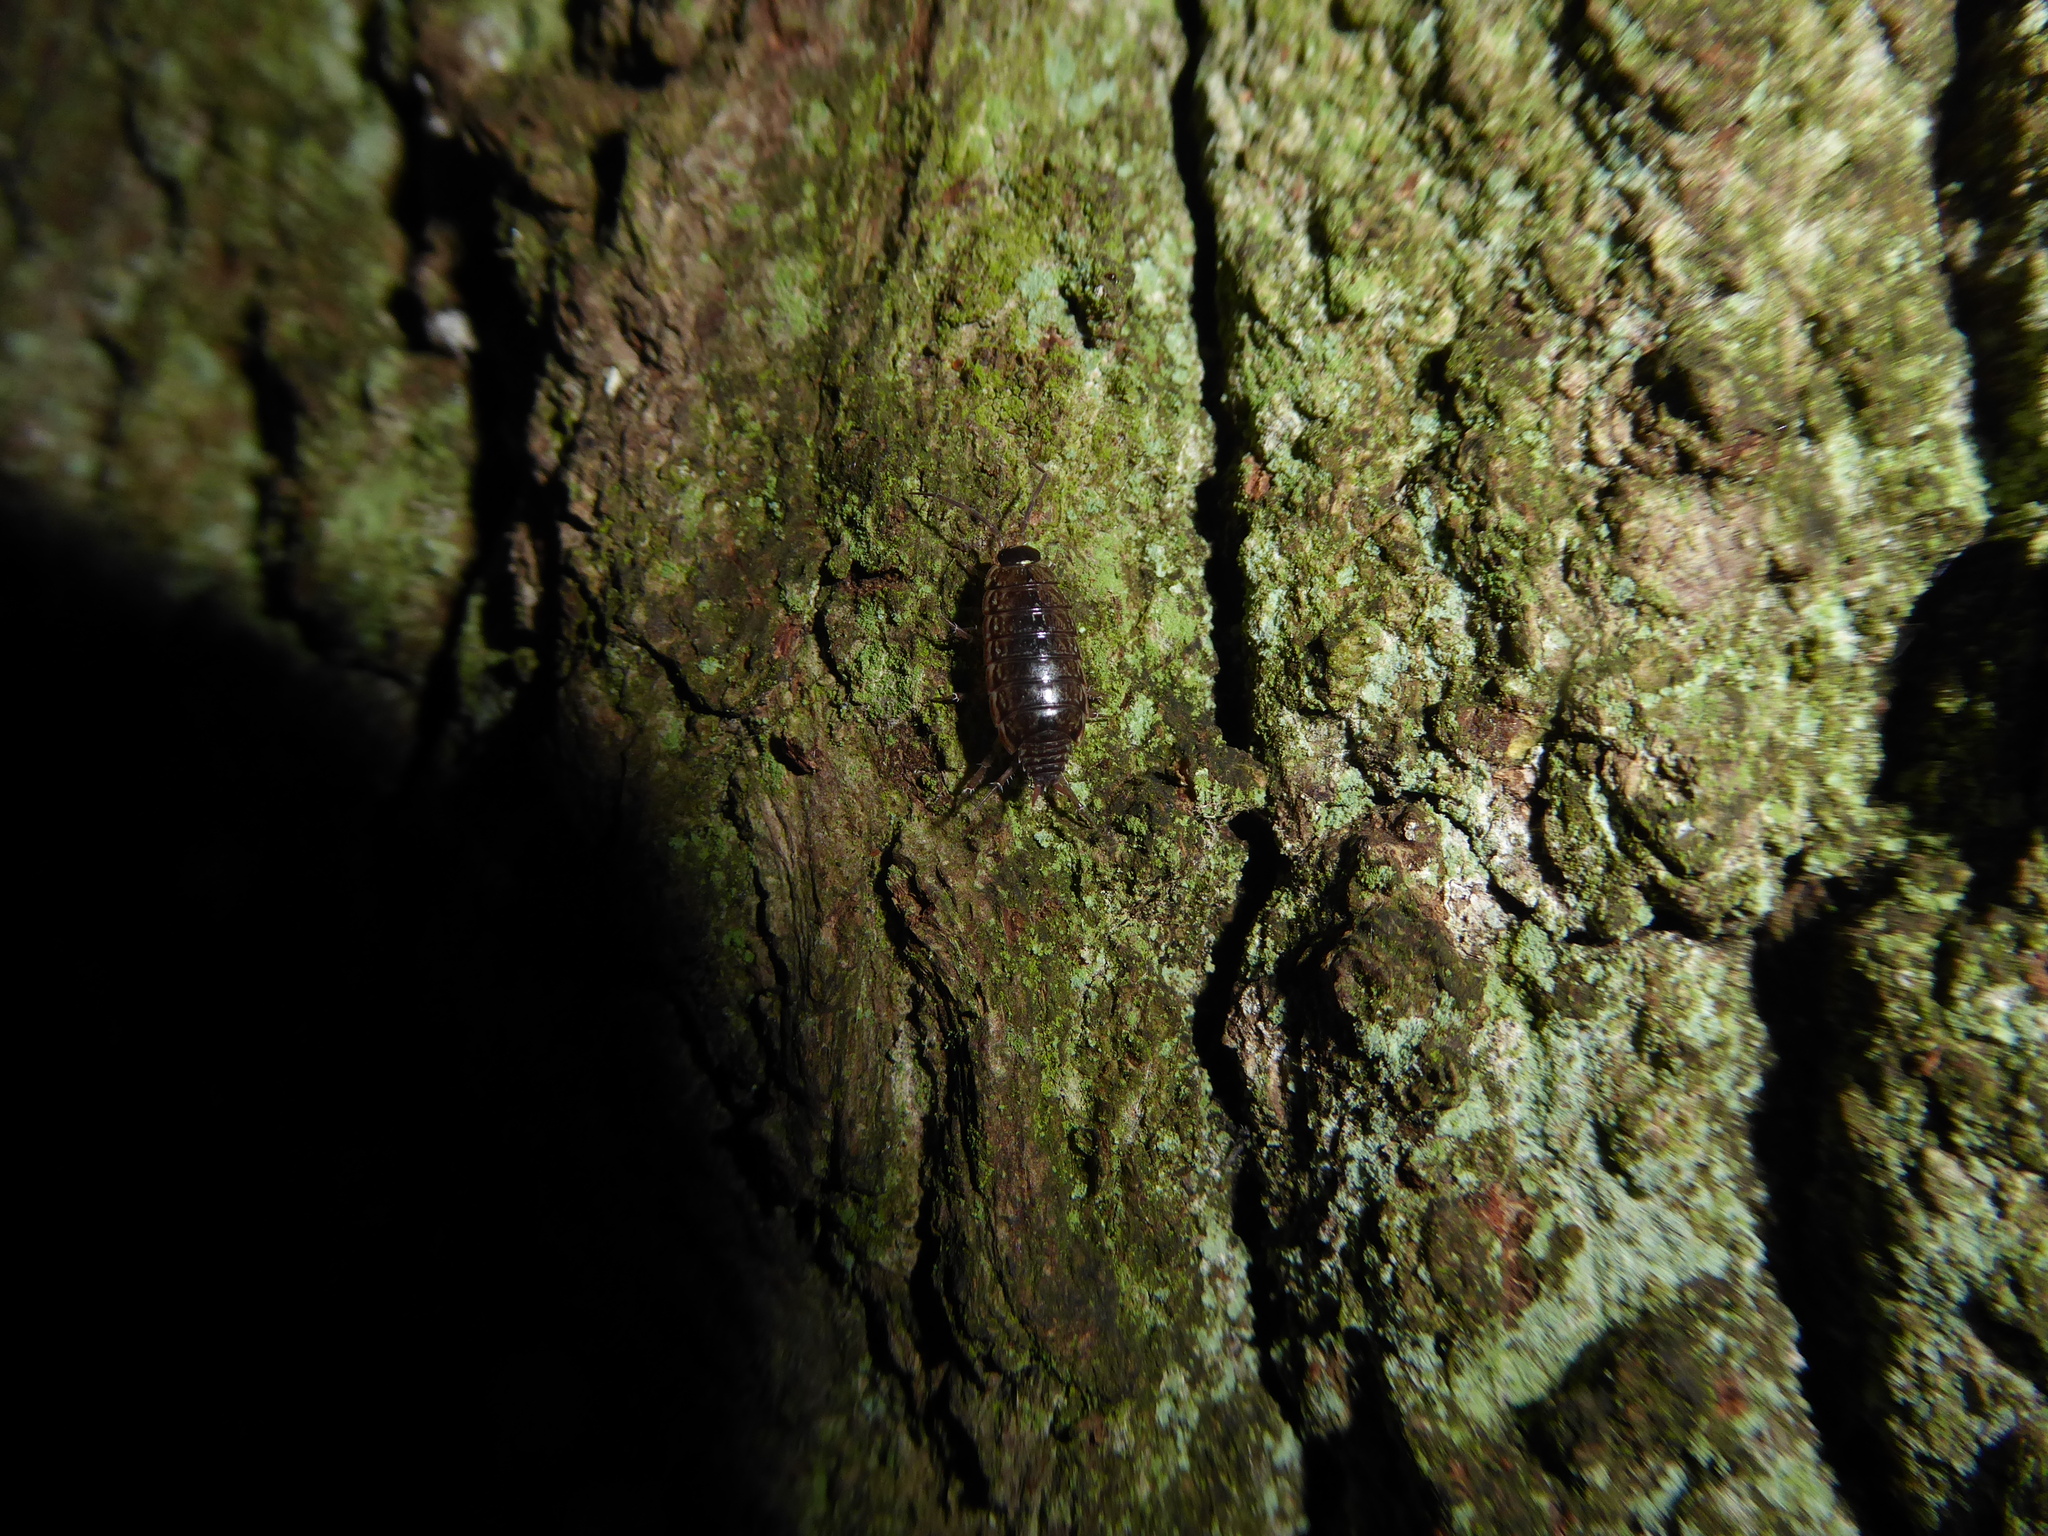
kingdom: Animalia
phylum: Arthropoda
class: Malacostraca
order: Isopoda
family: Philosciidae
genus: Philoscia
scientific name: Philoscia muscorum
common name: Common striped woodlouse
